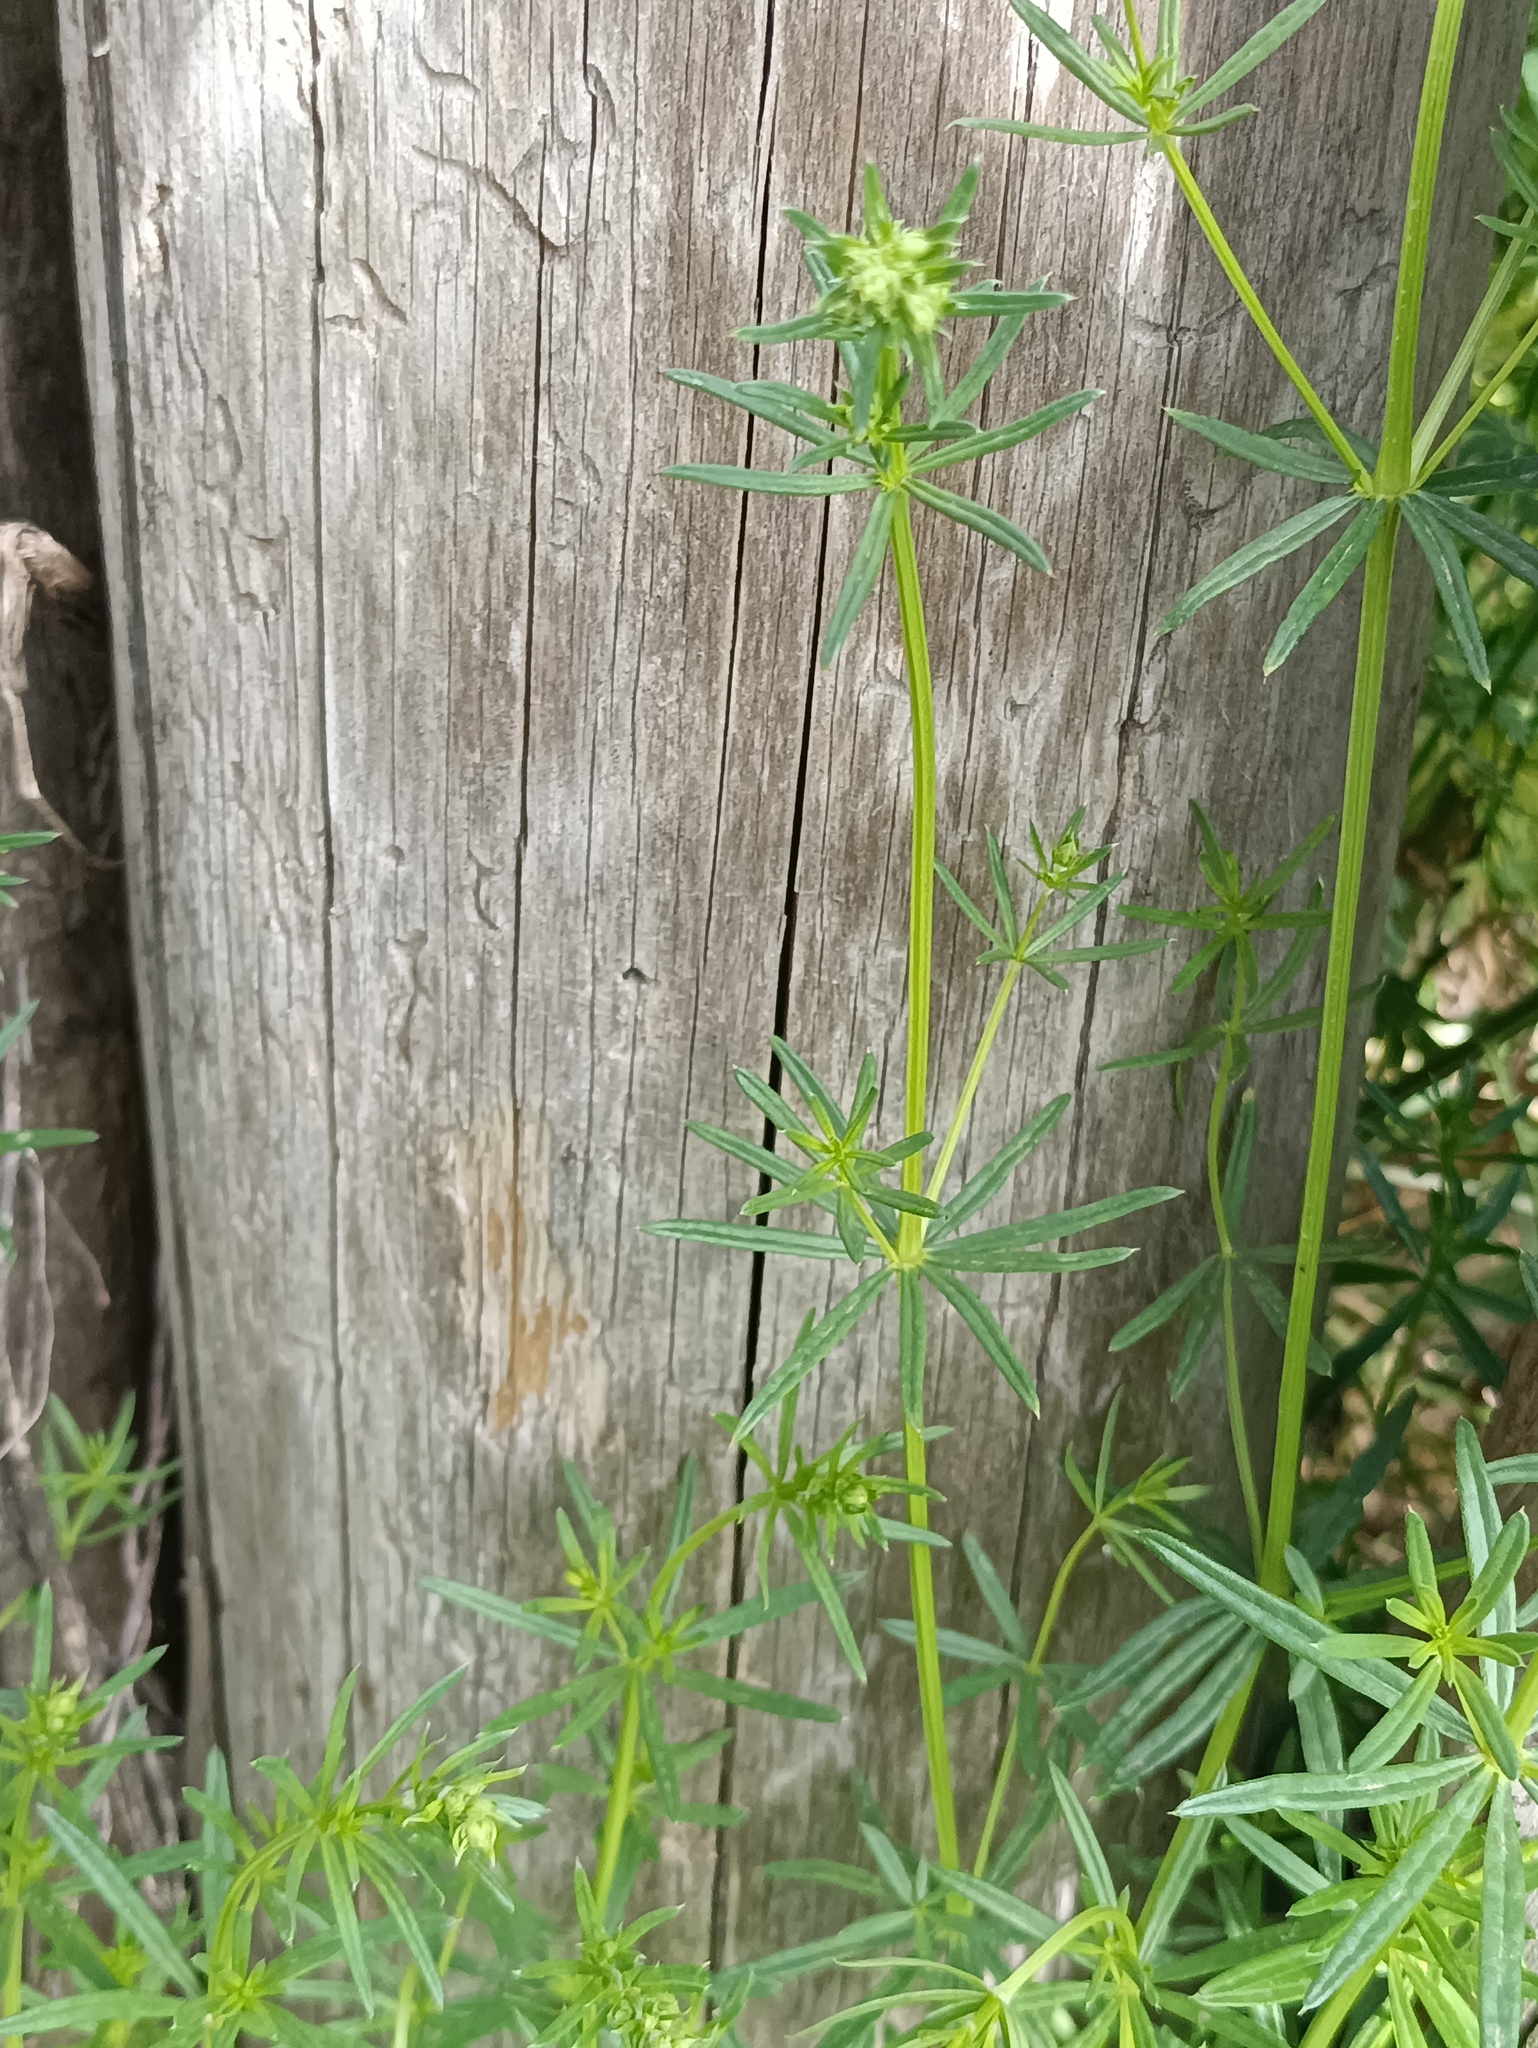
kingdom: Plantae
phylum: Tracheophyta
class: Magnoliopsida
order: Gentianales
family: Rubiaceae
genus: Galium
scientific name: Galium mollugo
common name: Hedge bedstraw
